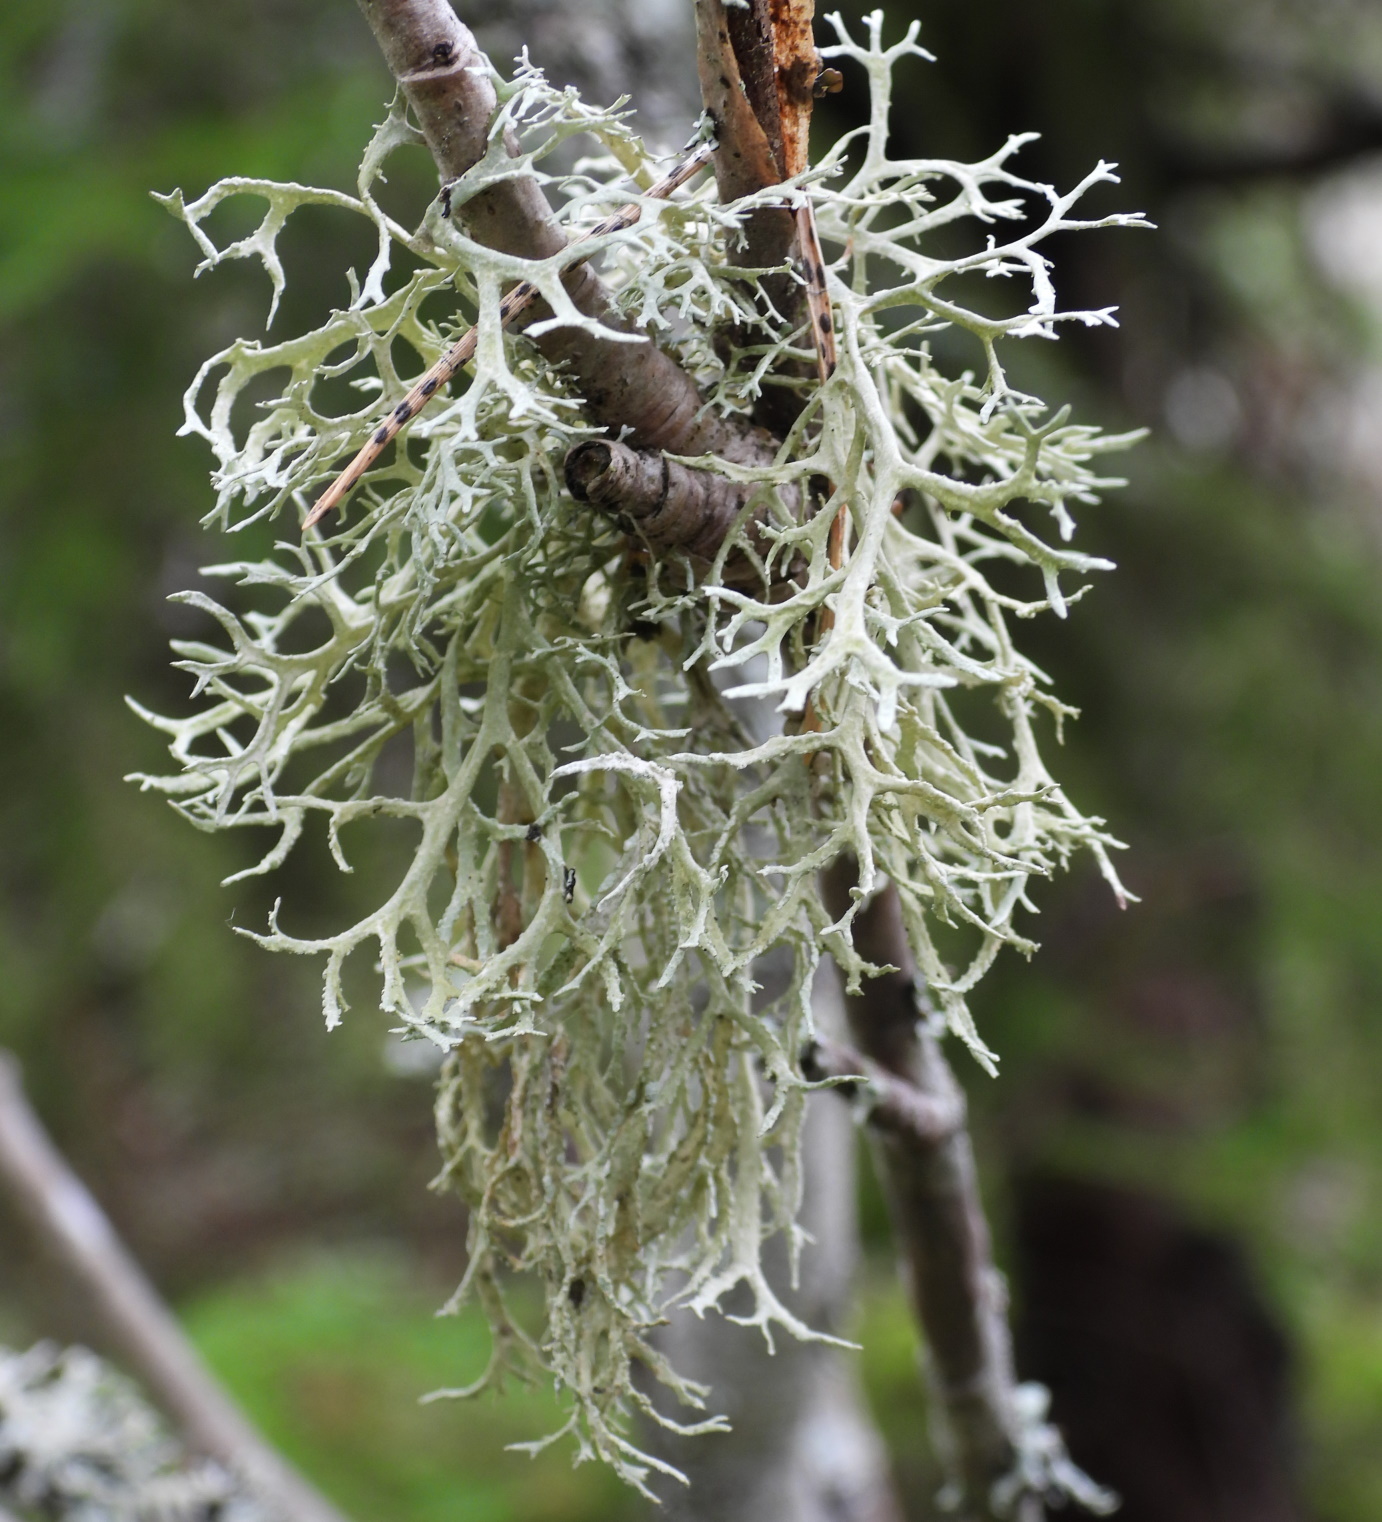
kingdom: Fungi
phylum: Ascomycota
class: Lecanoromycetes
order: Lecanorales
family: Parmeliaceae
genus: Evernia
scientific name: Evernia prunastri
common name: Oak moss
